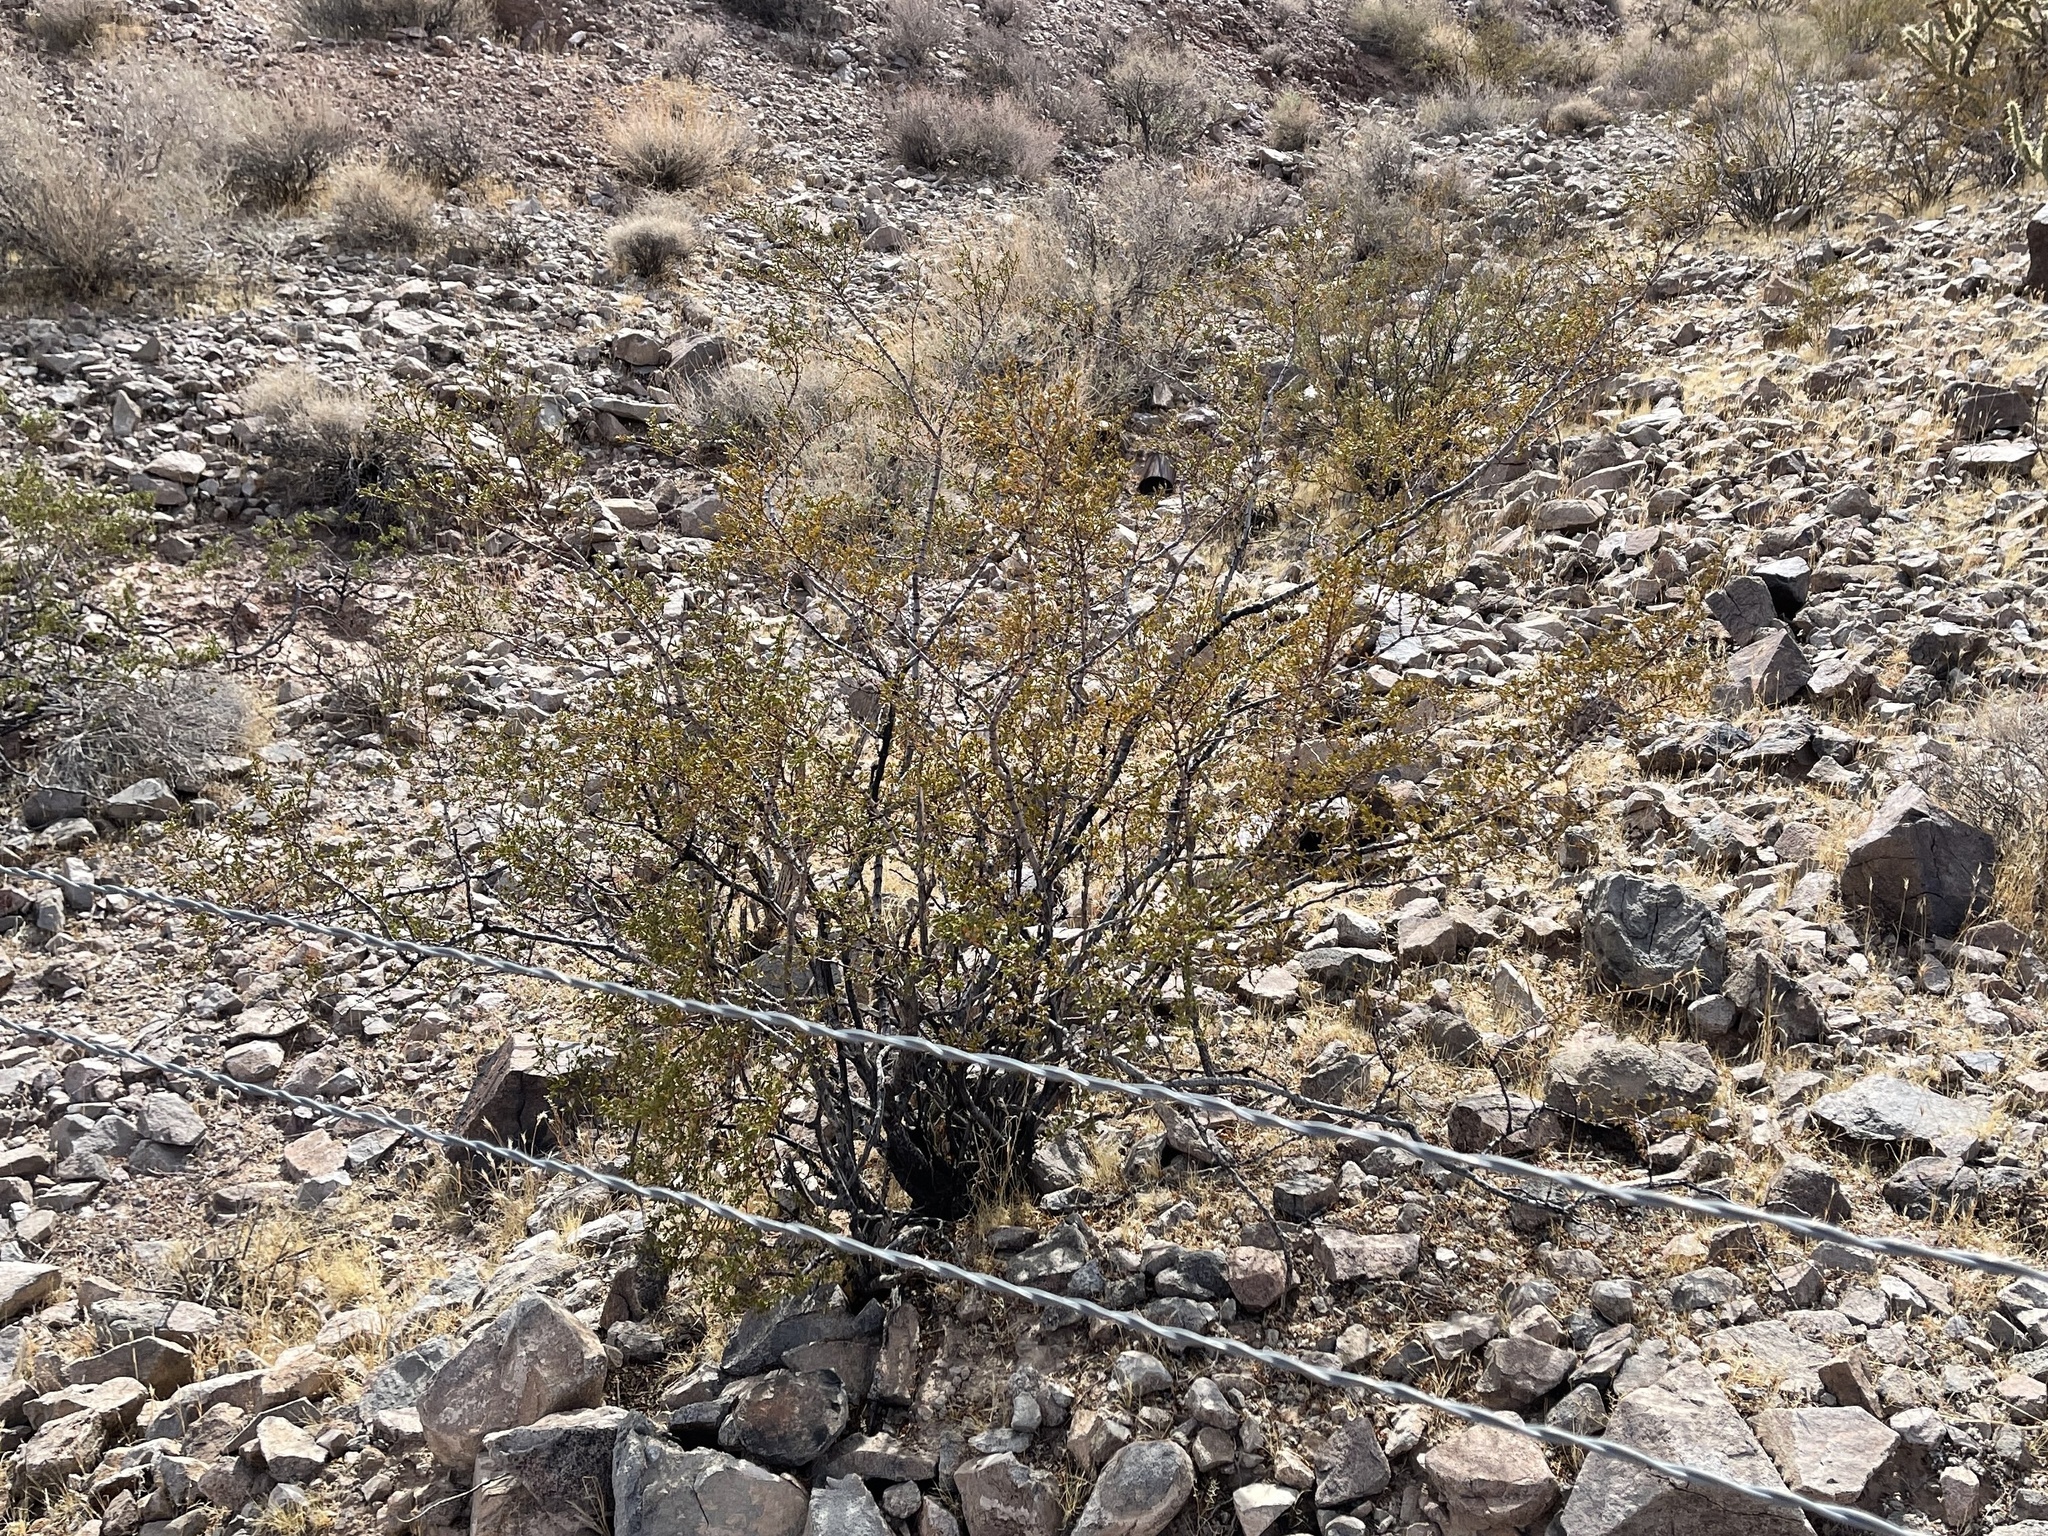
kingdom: Plantae
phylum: Tracheophyta
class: Magnoliopsida
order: Zygophyllales
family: Zygophyllaceae
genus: Larrea
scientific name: Larrea tridentata
